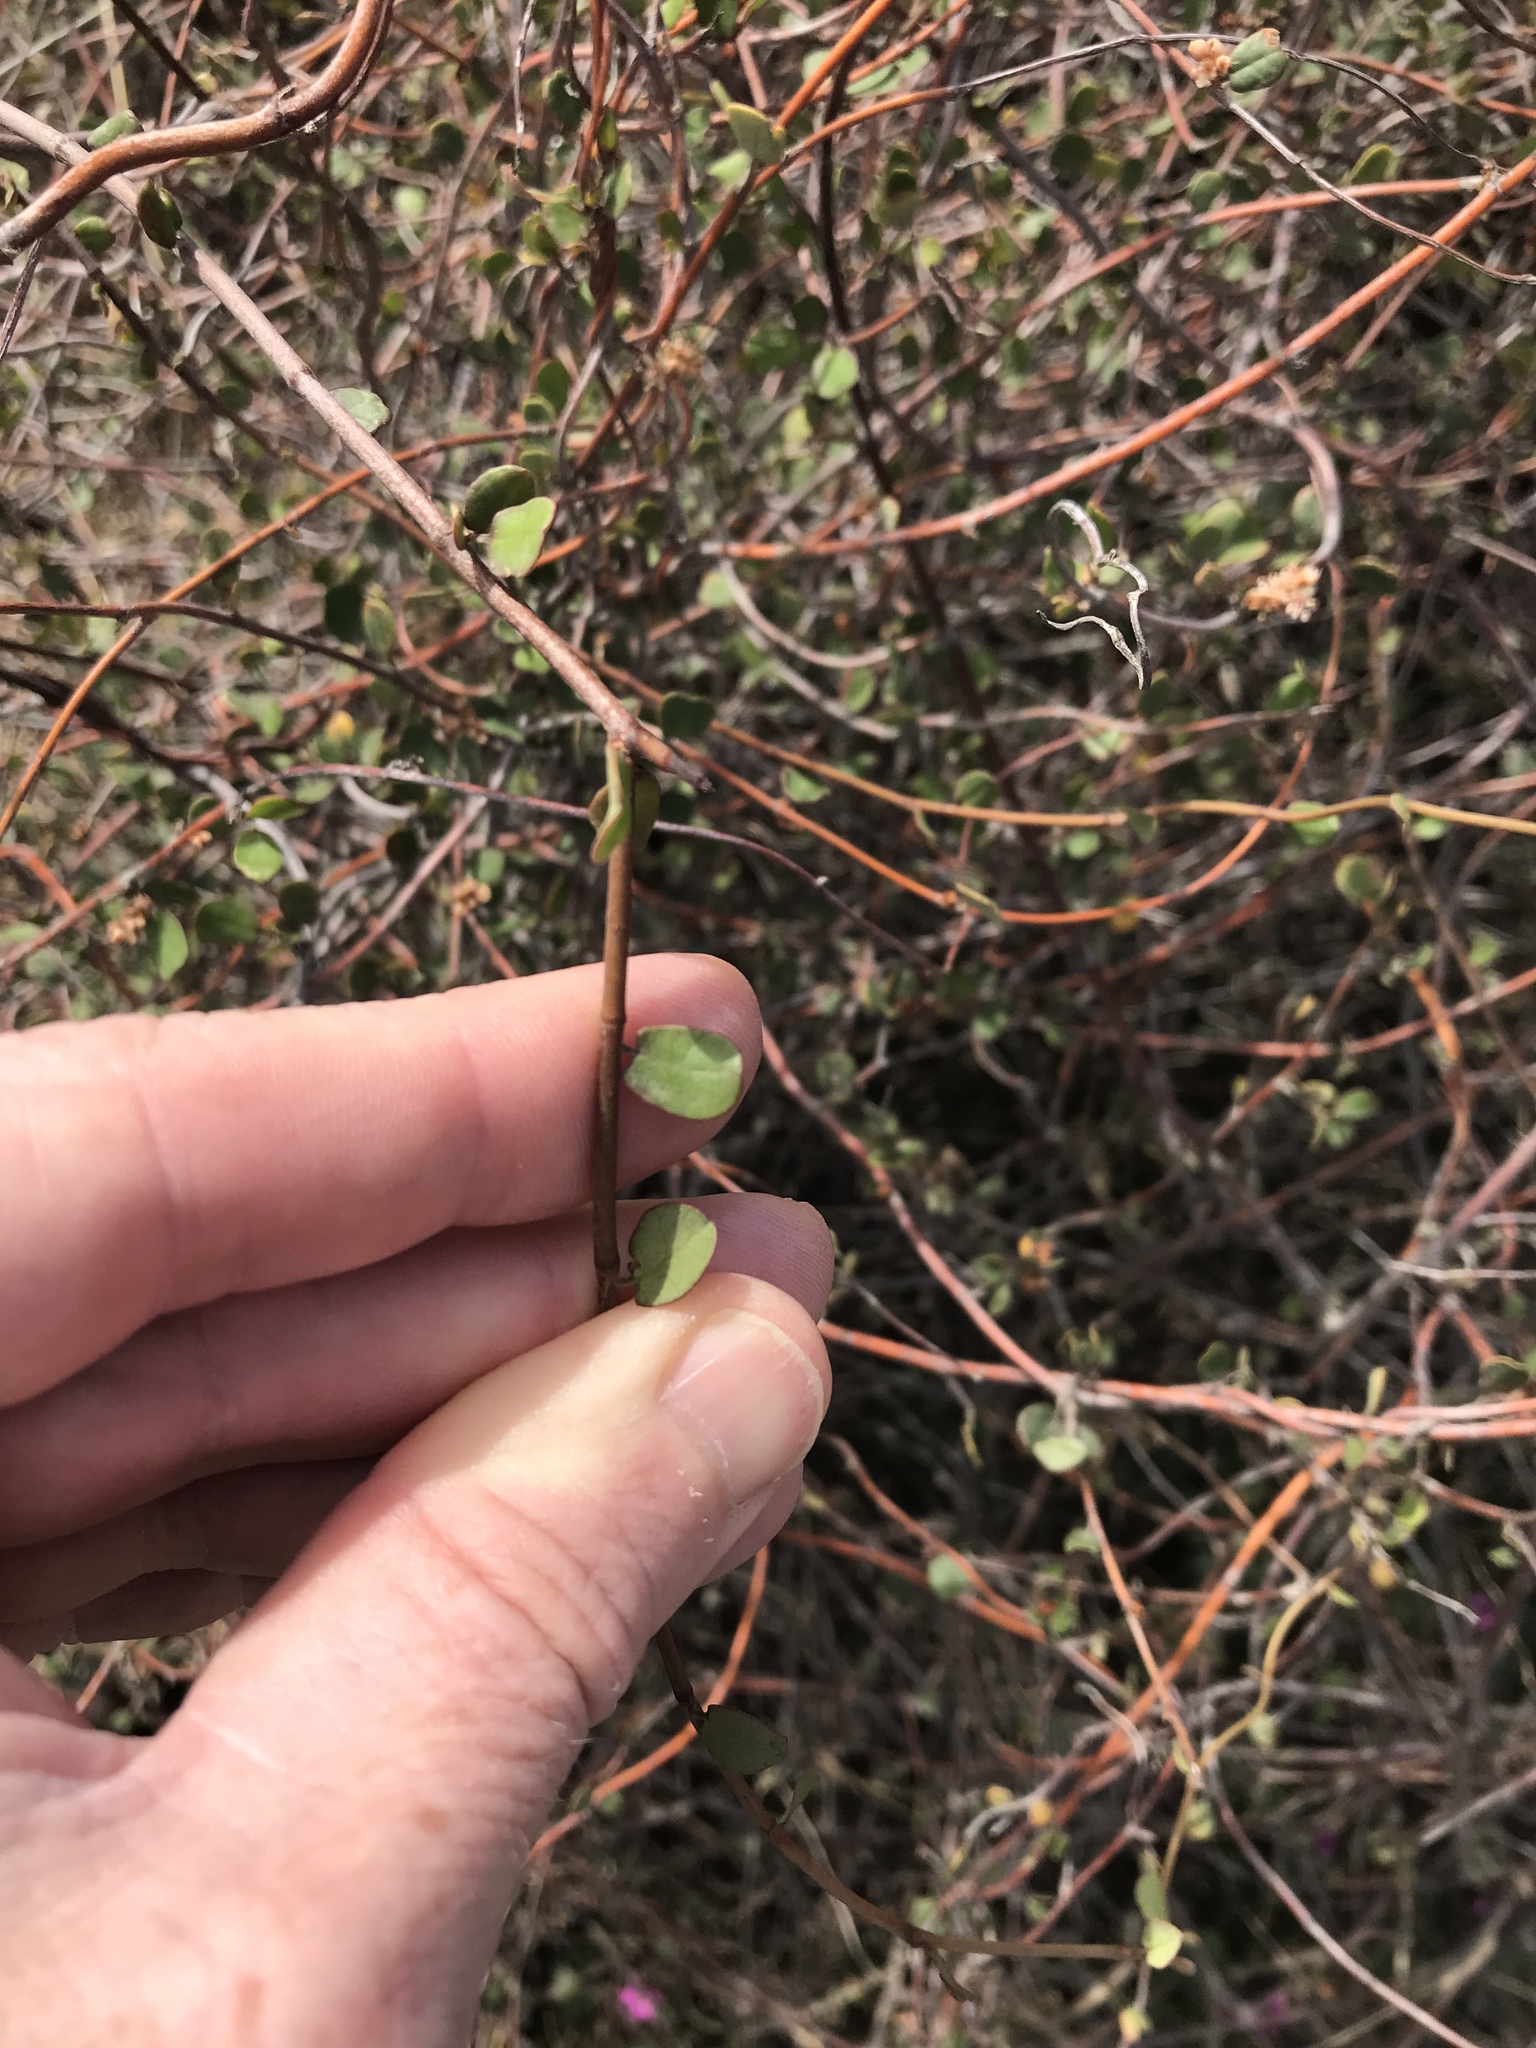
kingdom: Plantae
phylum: Tracheophyta
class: Magnoliopsida
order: Caryophyllales
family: Polygonaceae
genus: Muehlenbeckia
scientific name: Muehlenbeckia complexa
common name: Wireplant
